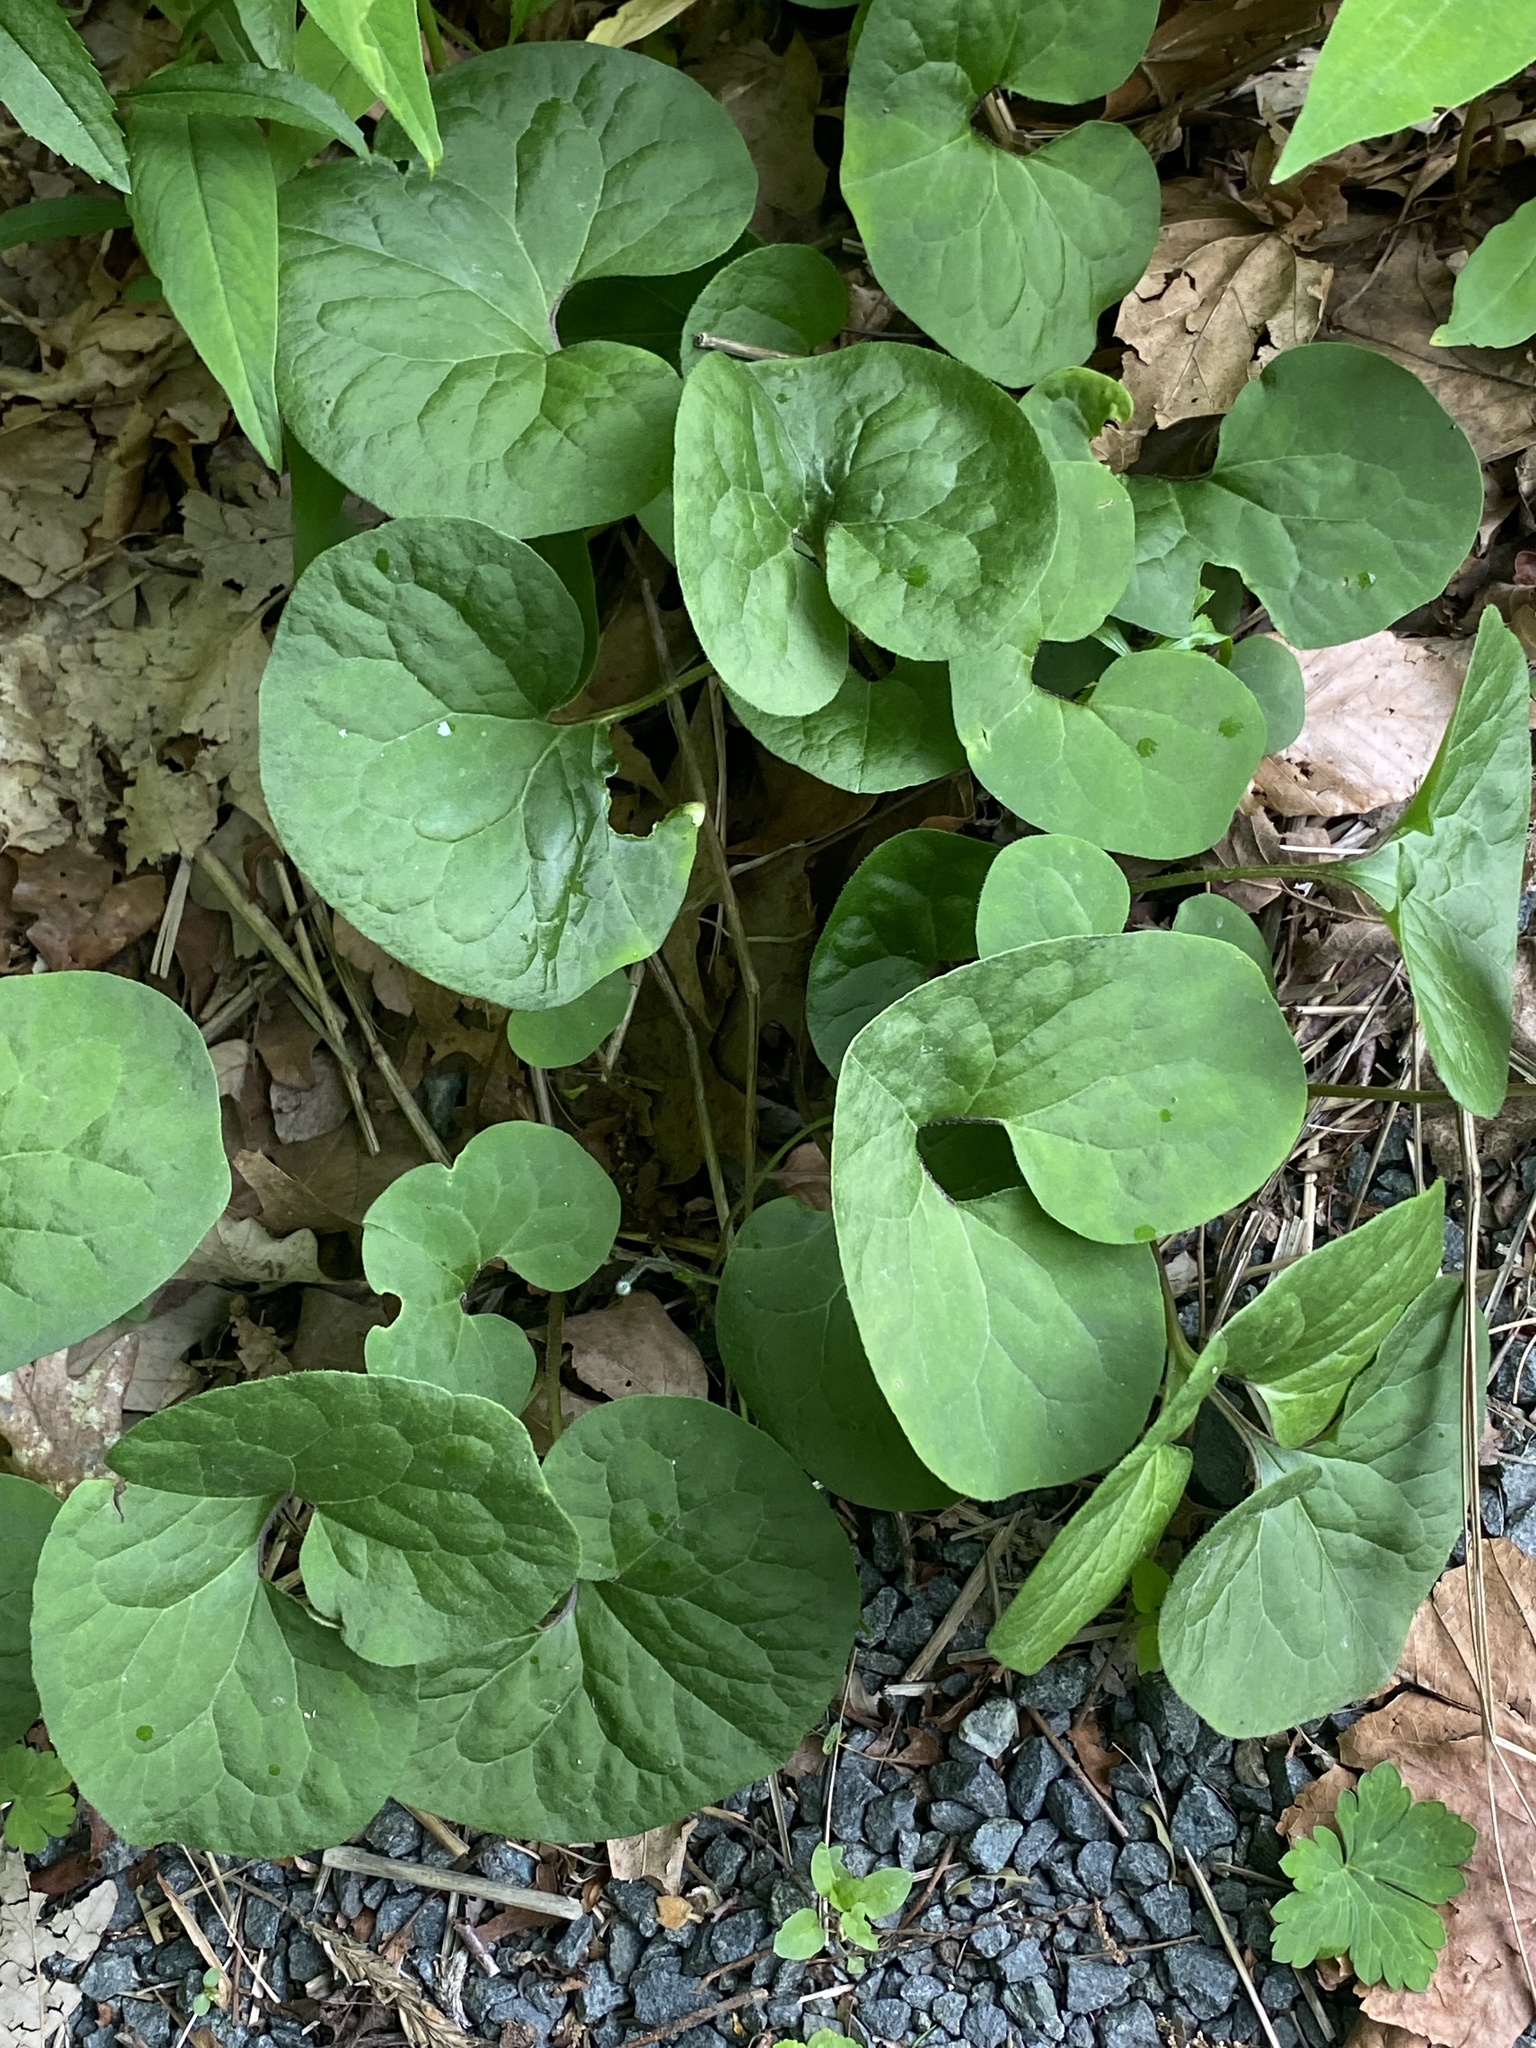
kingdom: Plantae
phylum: Tracheophyta
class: Magnoliopsida
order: Piperales
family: Aristolochiaceae
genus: Asarum
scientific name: Asarum canadense
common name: Wild ginger
